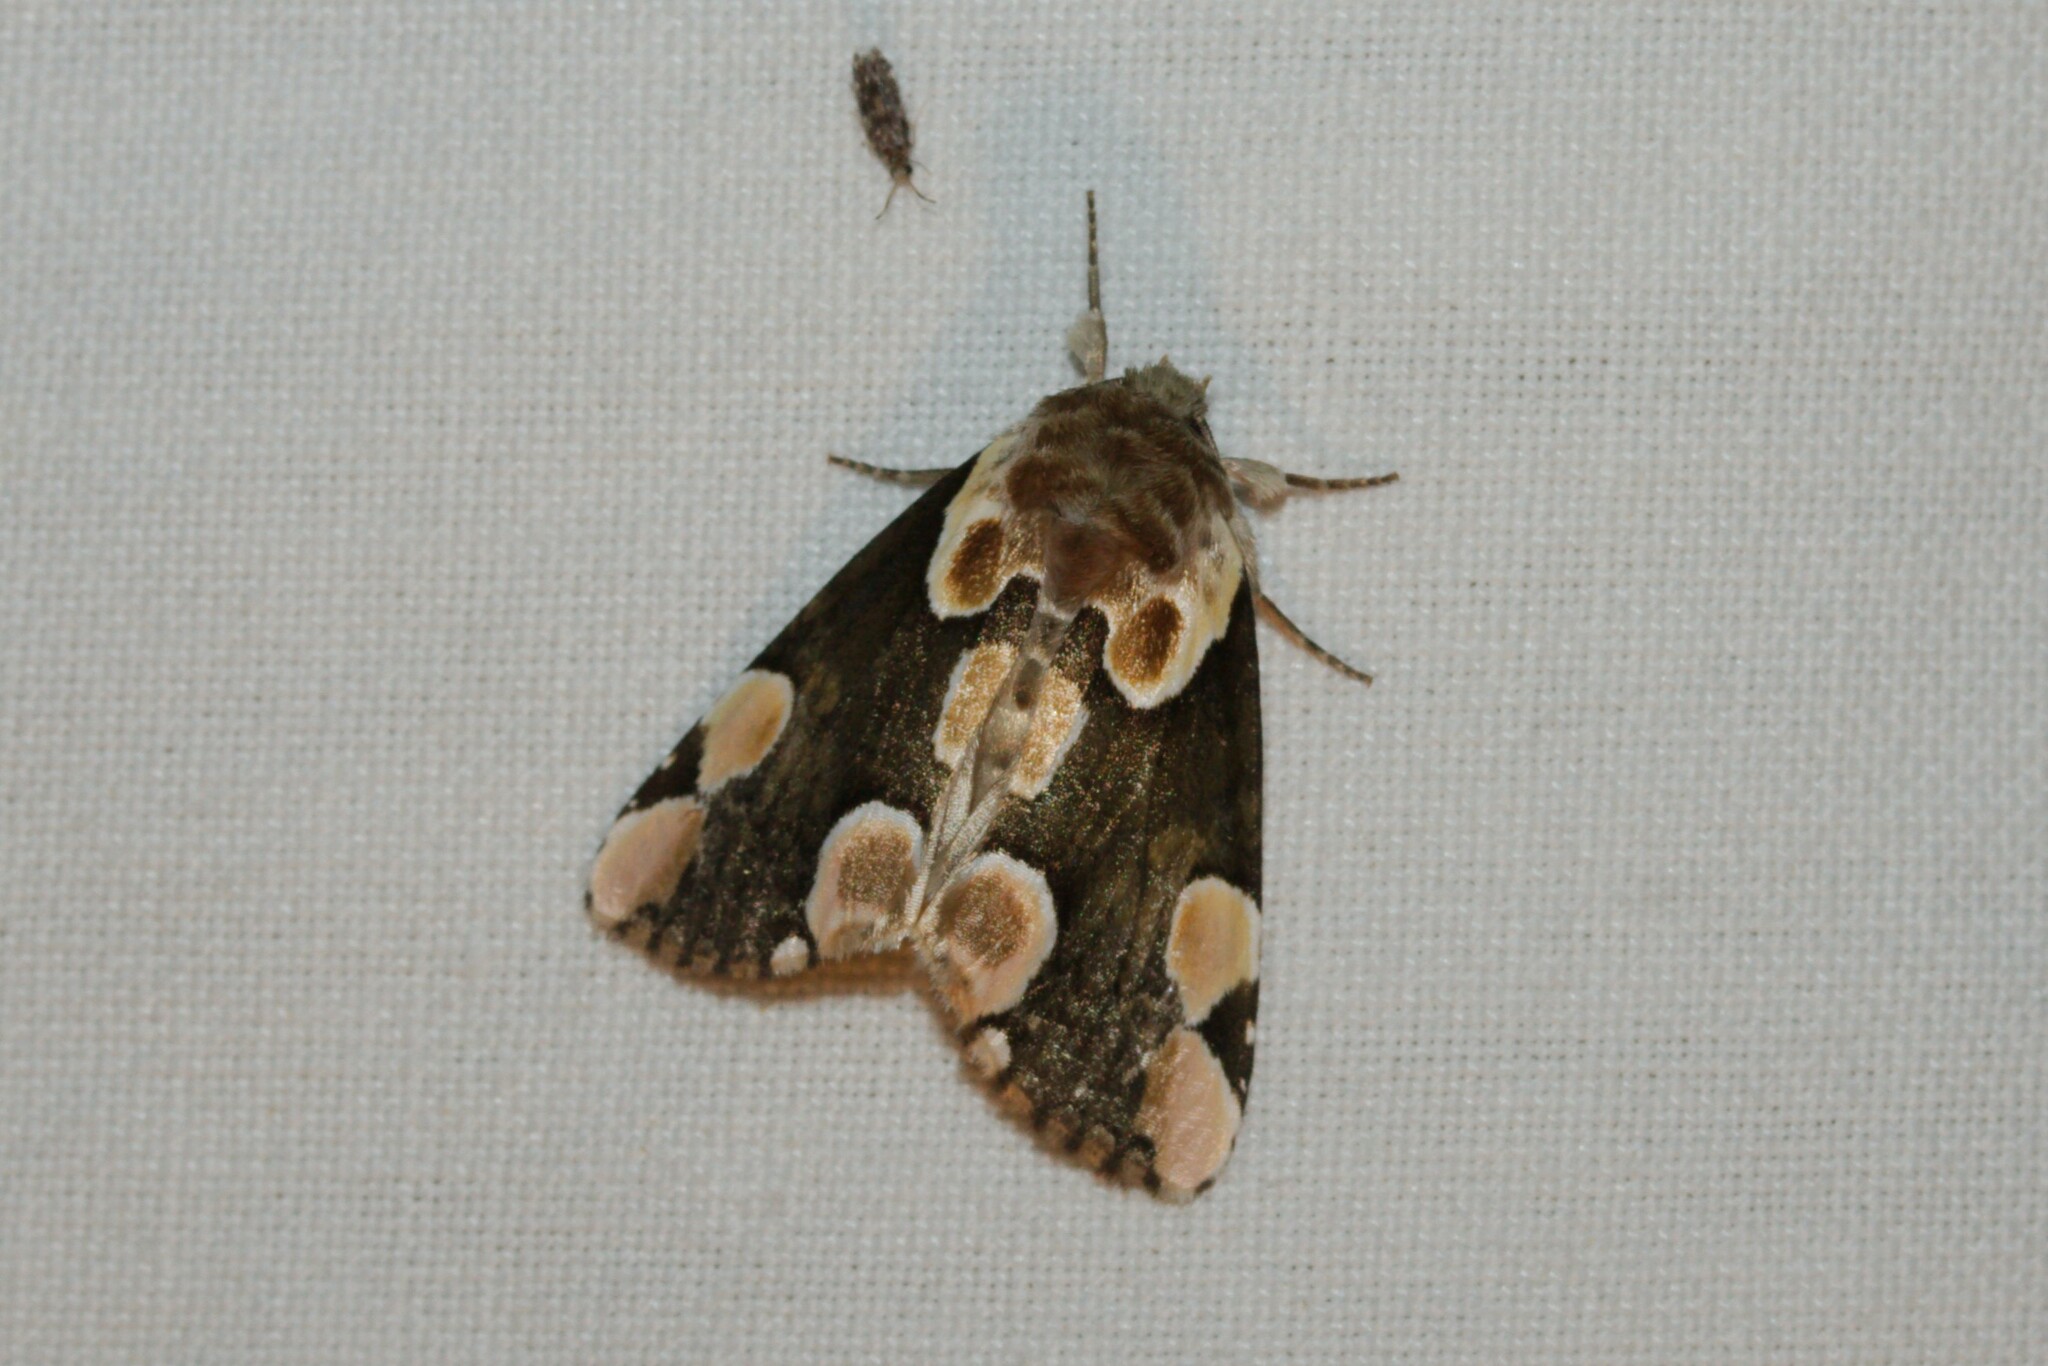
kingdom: Animalia
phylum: Arthropoda
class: Insecta
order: Lepidoptera
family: Drepanidae
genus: Thyatira
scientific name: Thyatira batis
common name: Peach blossom
